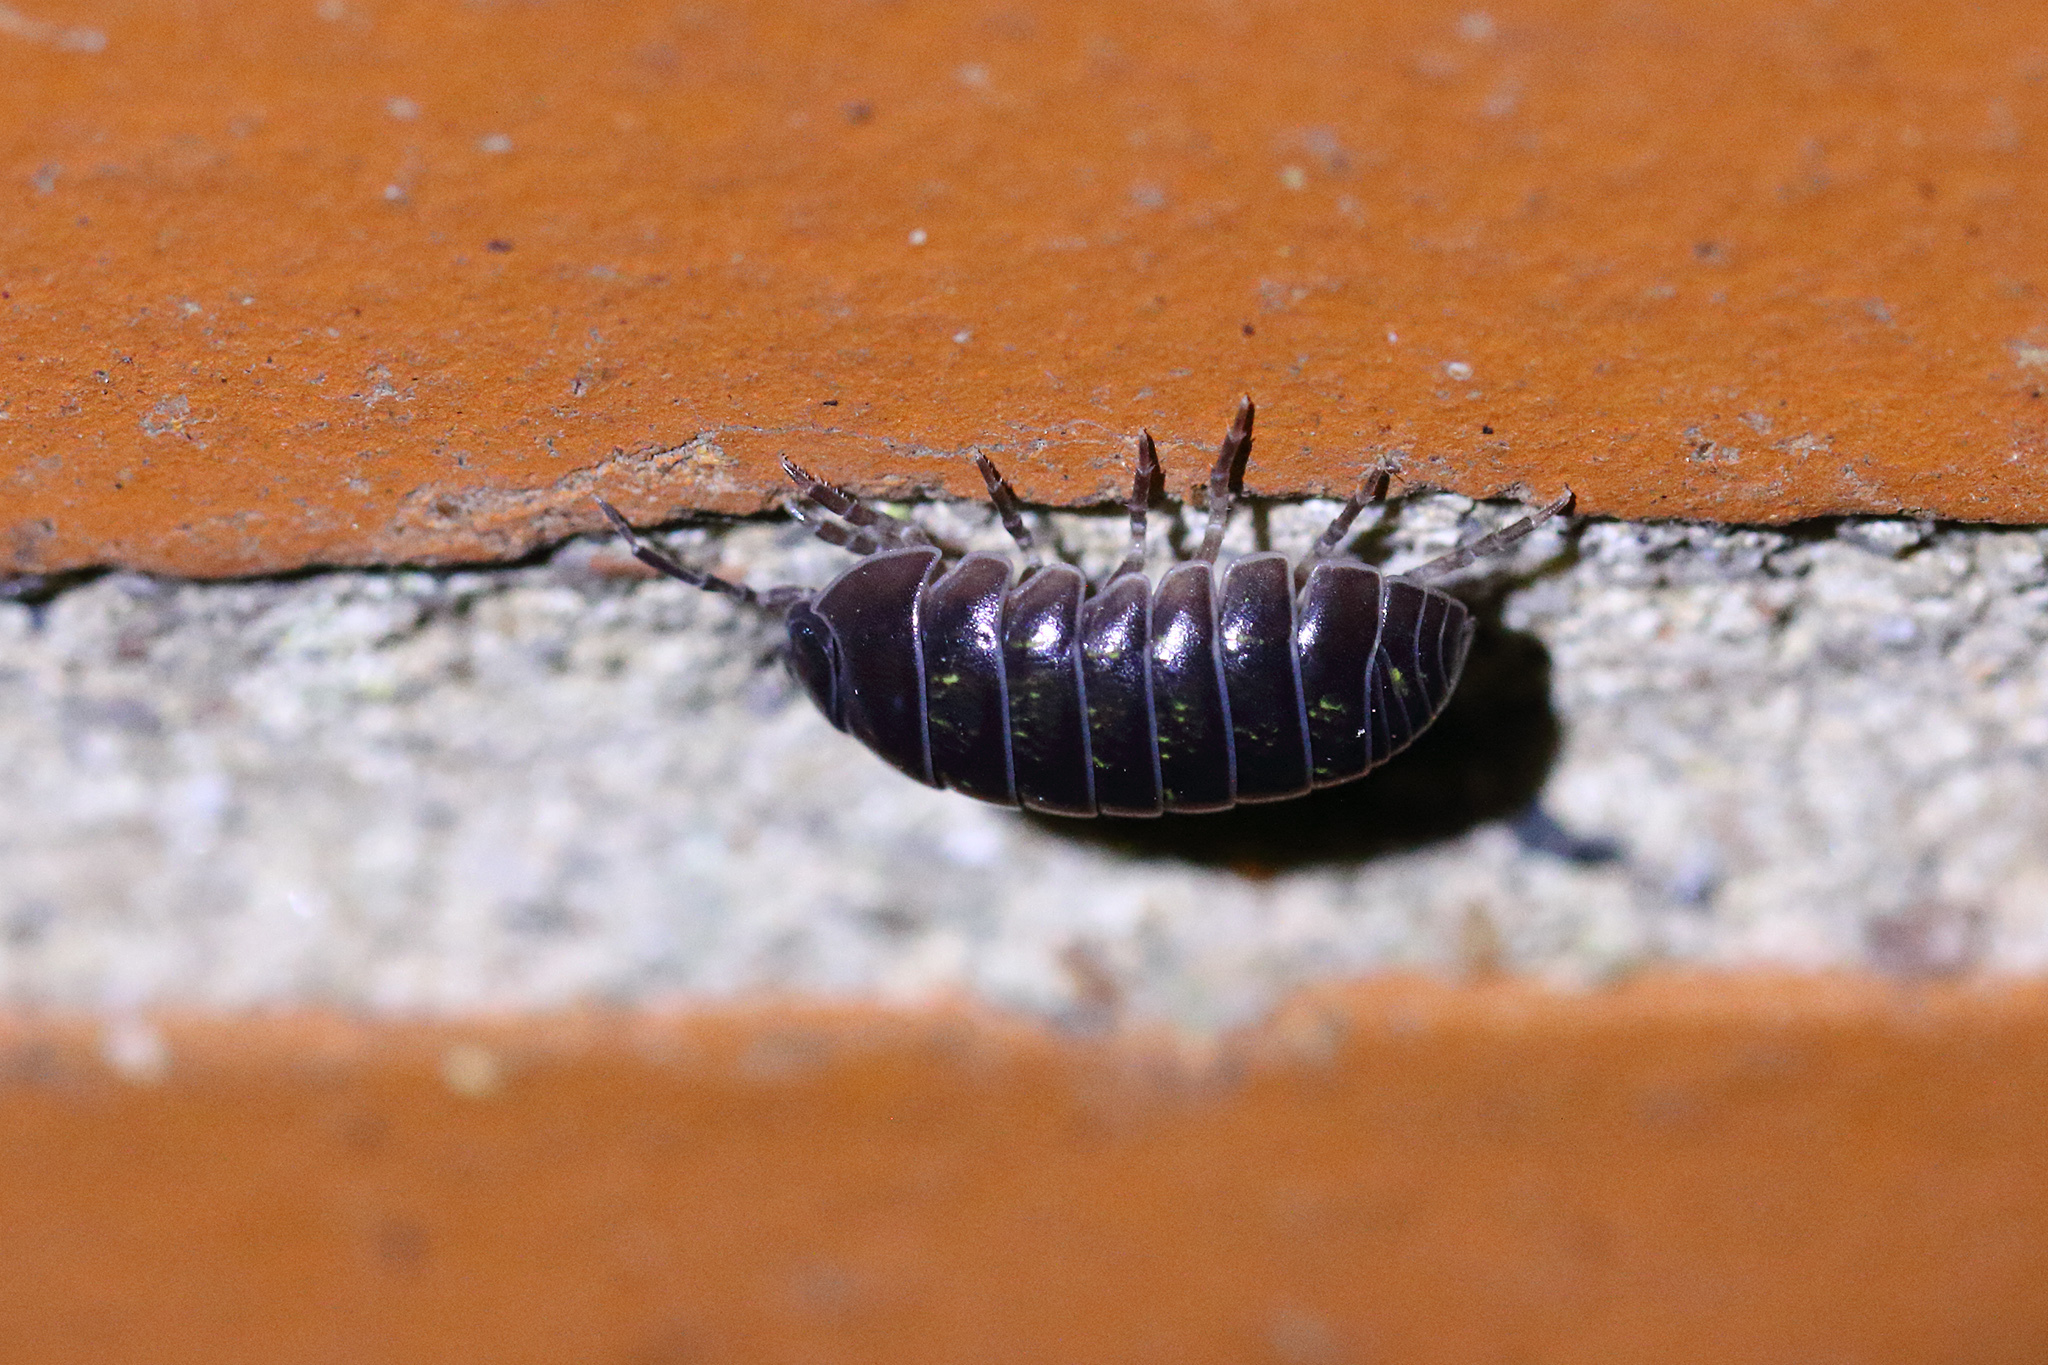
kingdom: Animalia
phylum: Arthropoda
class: Malacostraca
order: Isopoda
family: Armadillidiidae
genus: Armadillidium
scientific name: Armadillidium vulgare
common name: Common pill woodlouse
